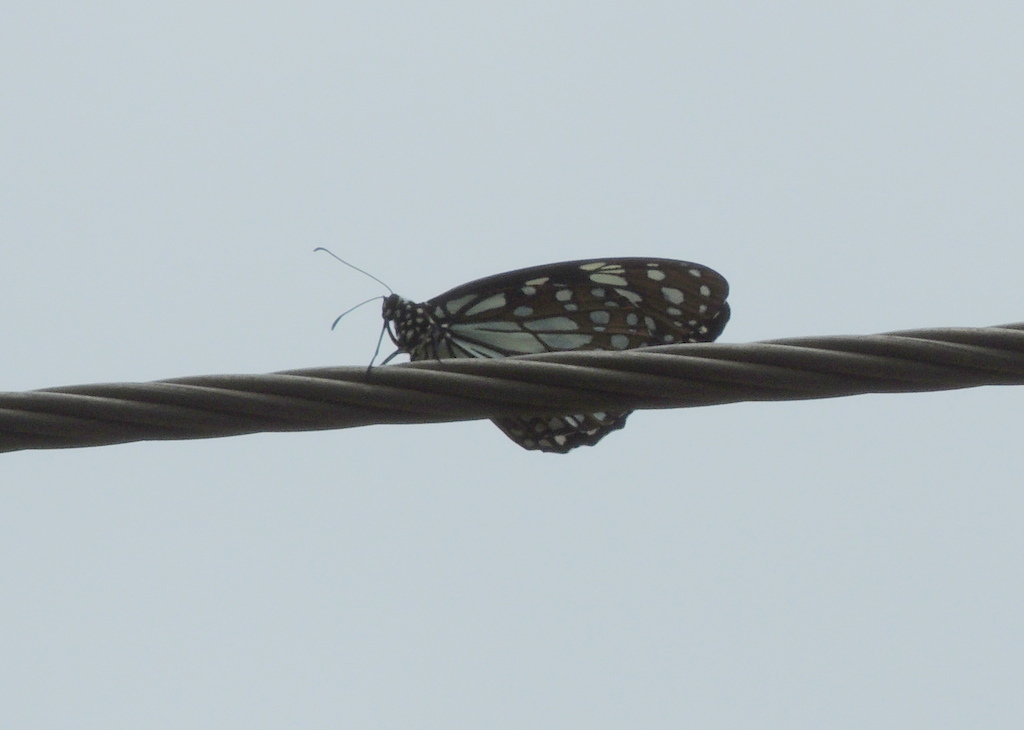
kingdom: Animalia
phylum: Arthropoda
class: Insecta
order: Lepidoptera
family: Nymphalidae
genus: Tirumala
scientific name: Tirumala limniace
